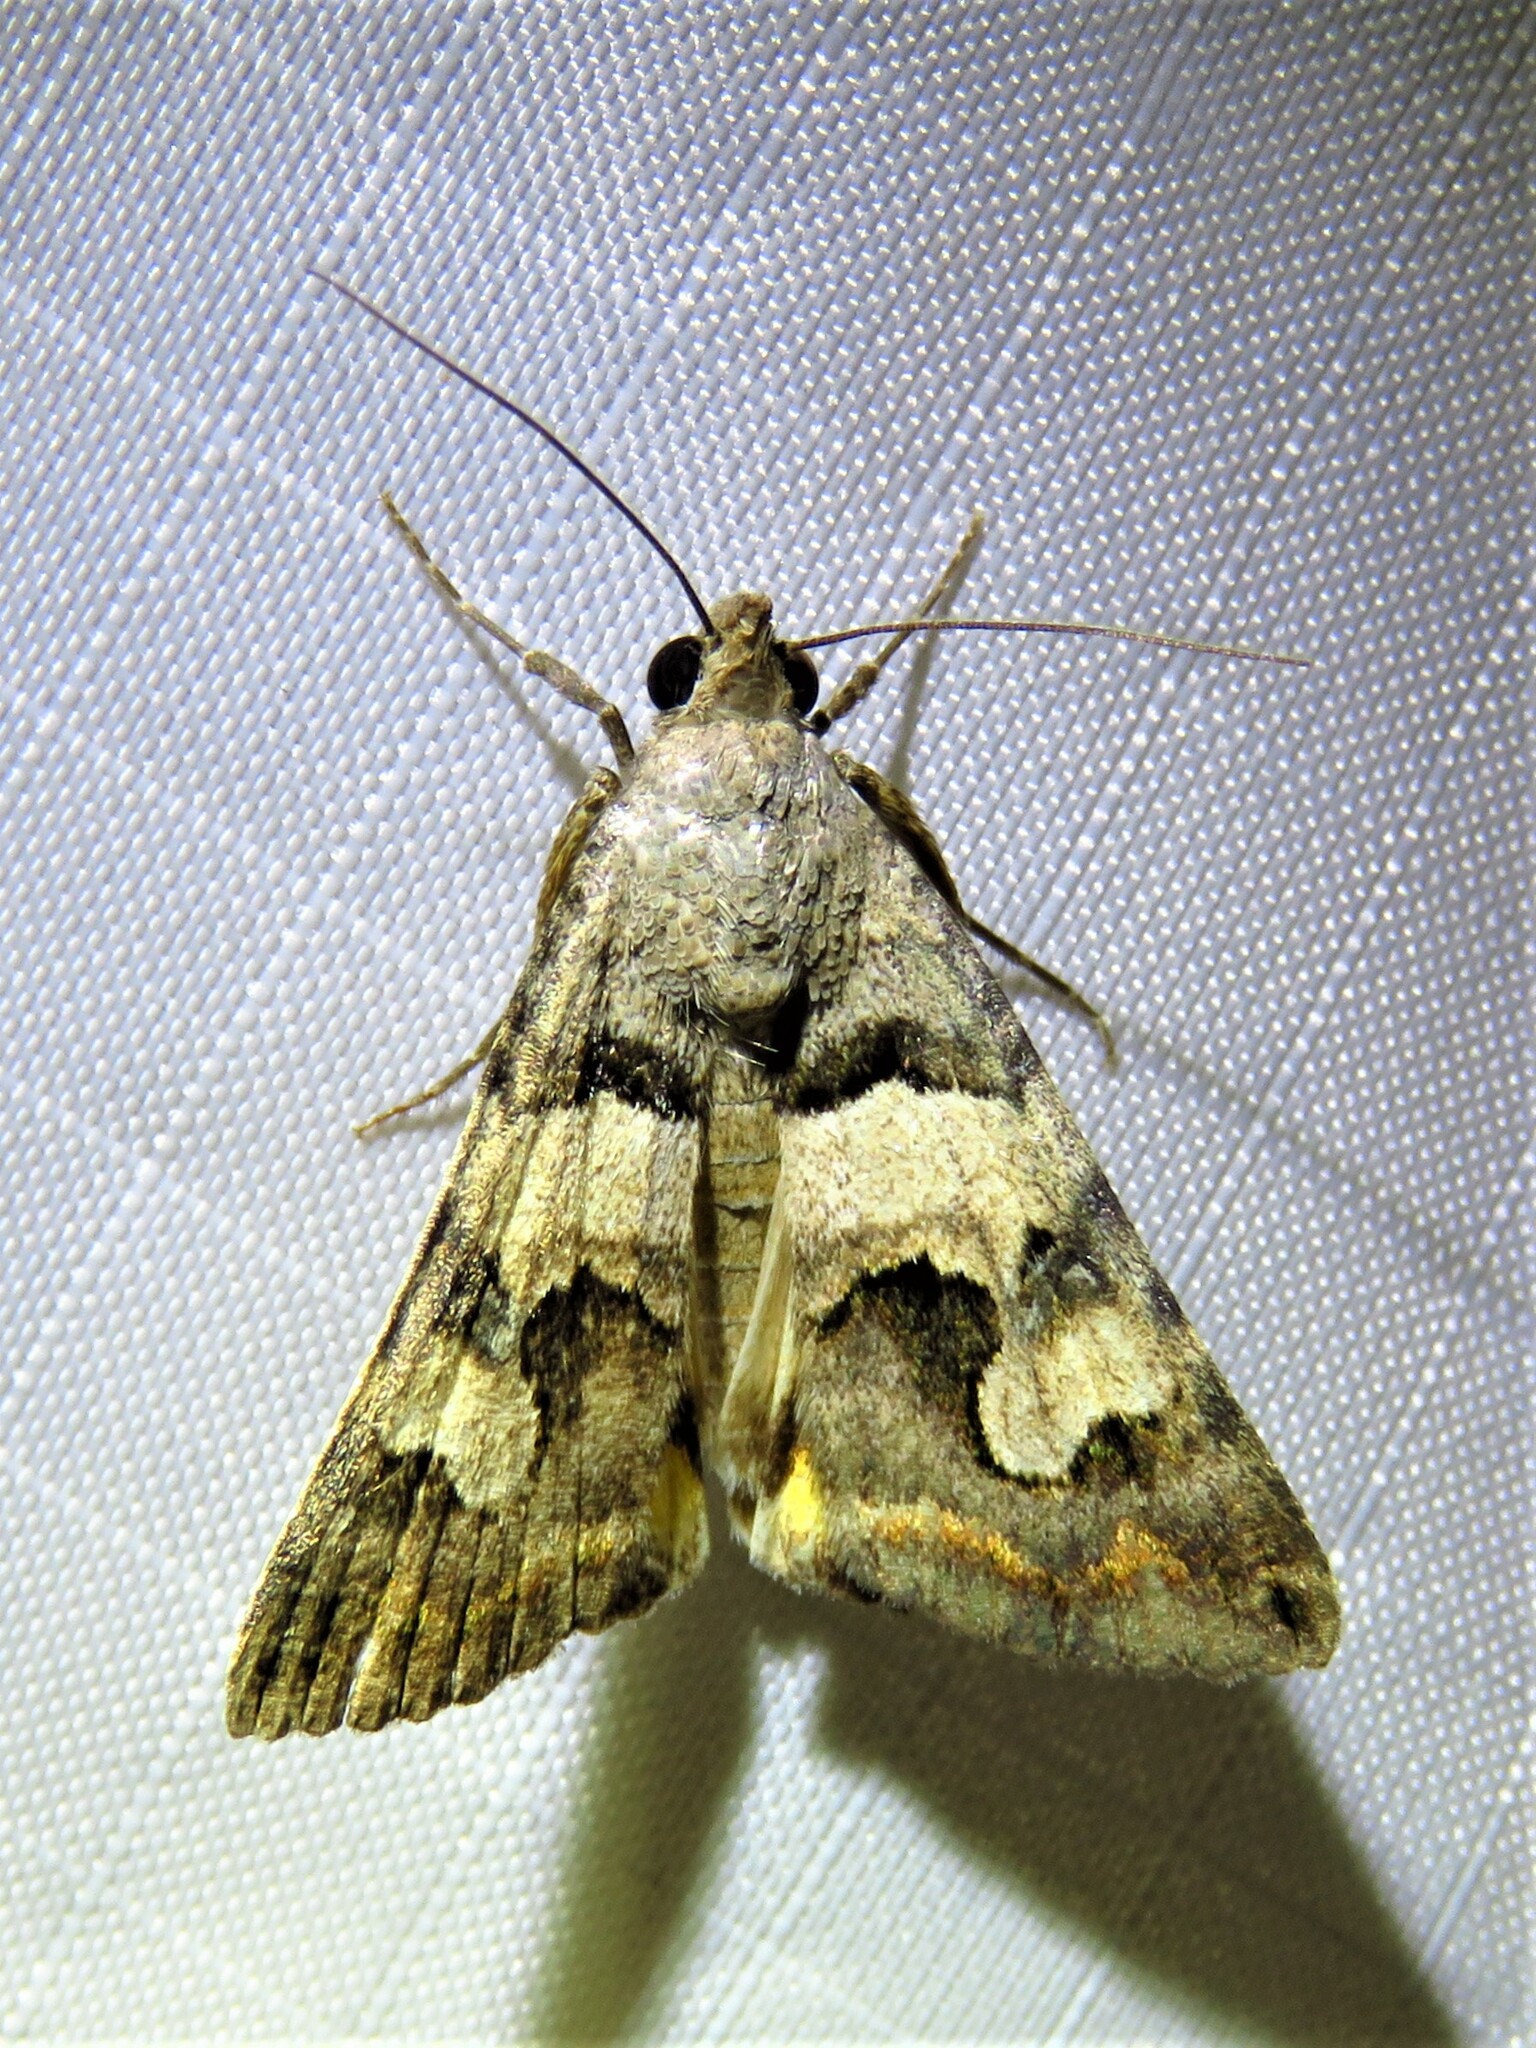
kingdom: Animalia
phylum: Arthropoda
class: Insecta
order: Lepidoptera
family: Erebidae
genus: Bulia
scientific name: Bulia deducta
